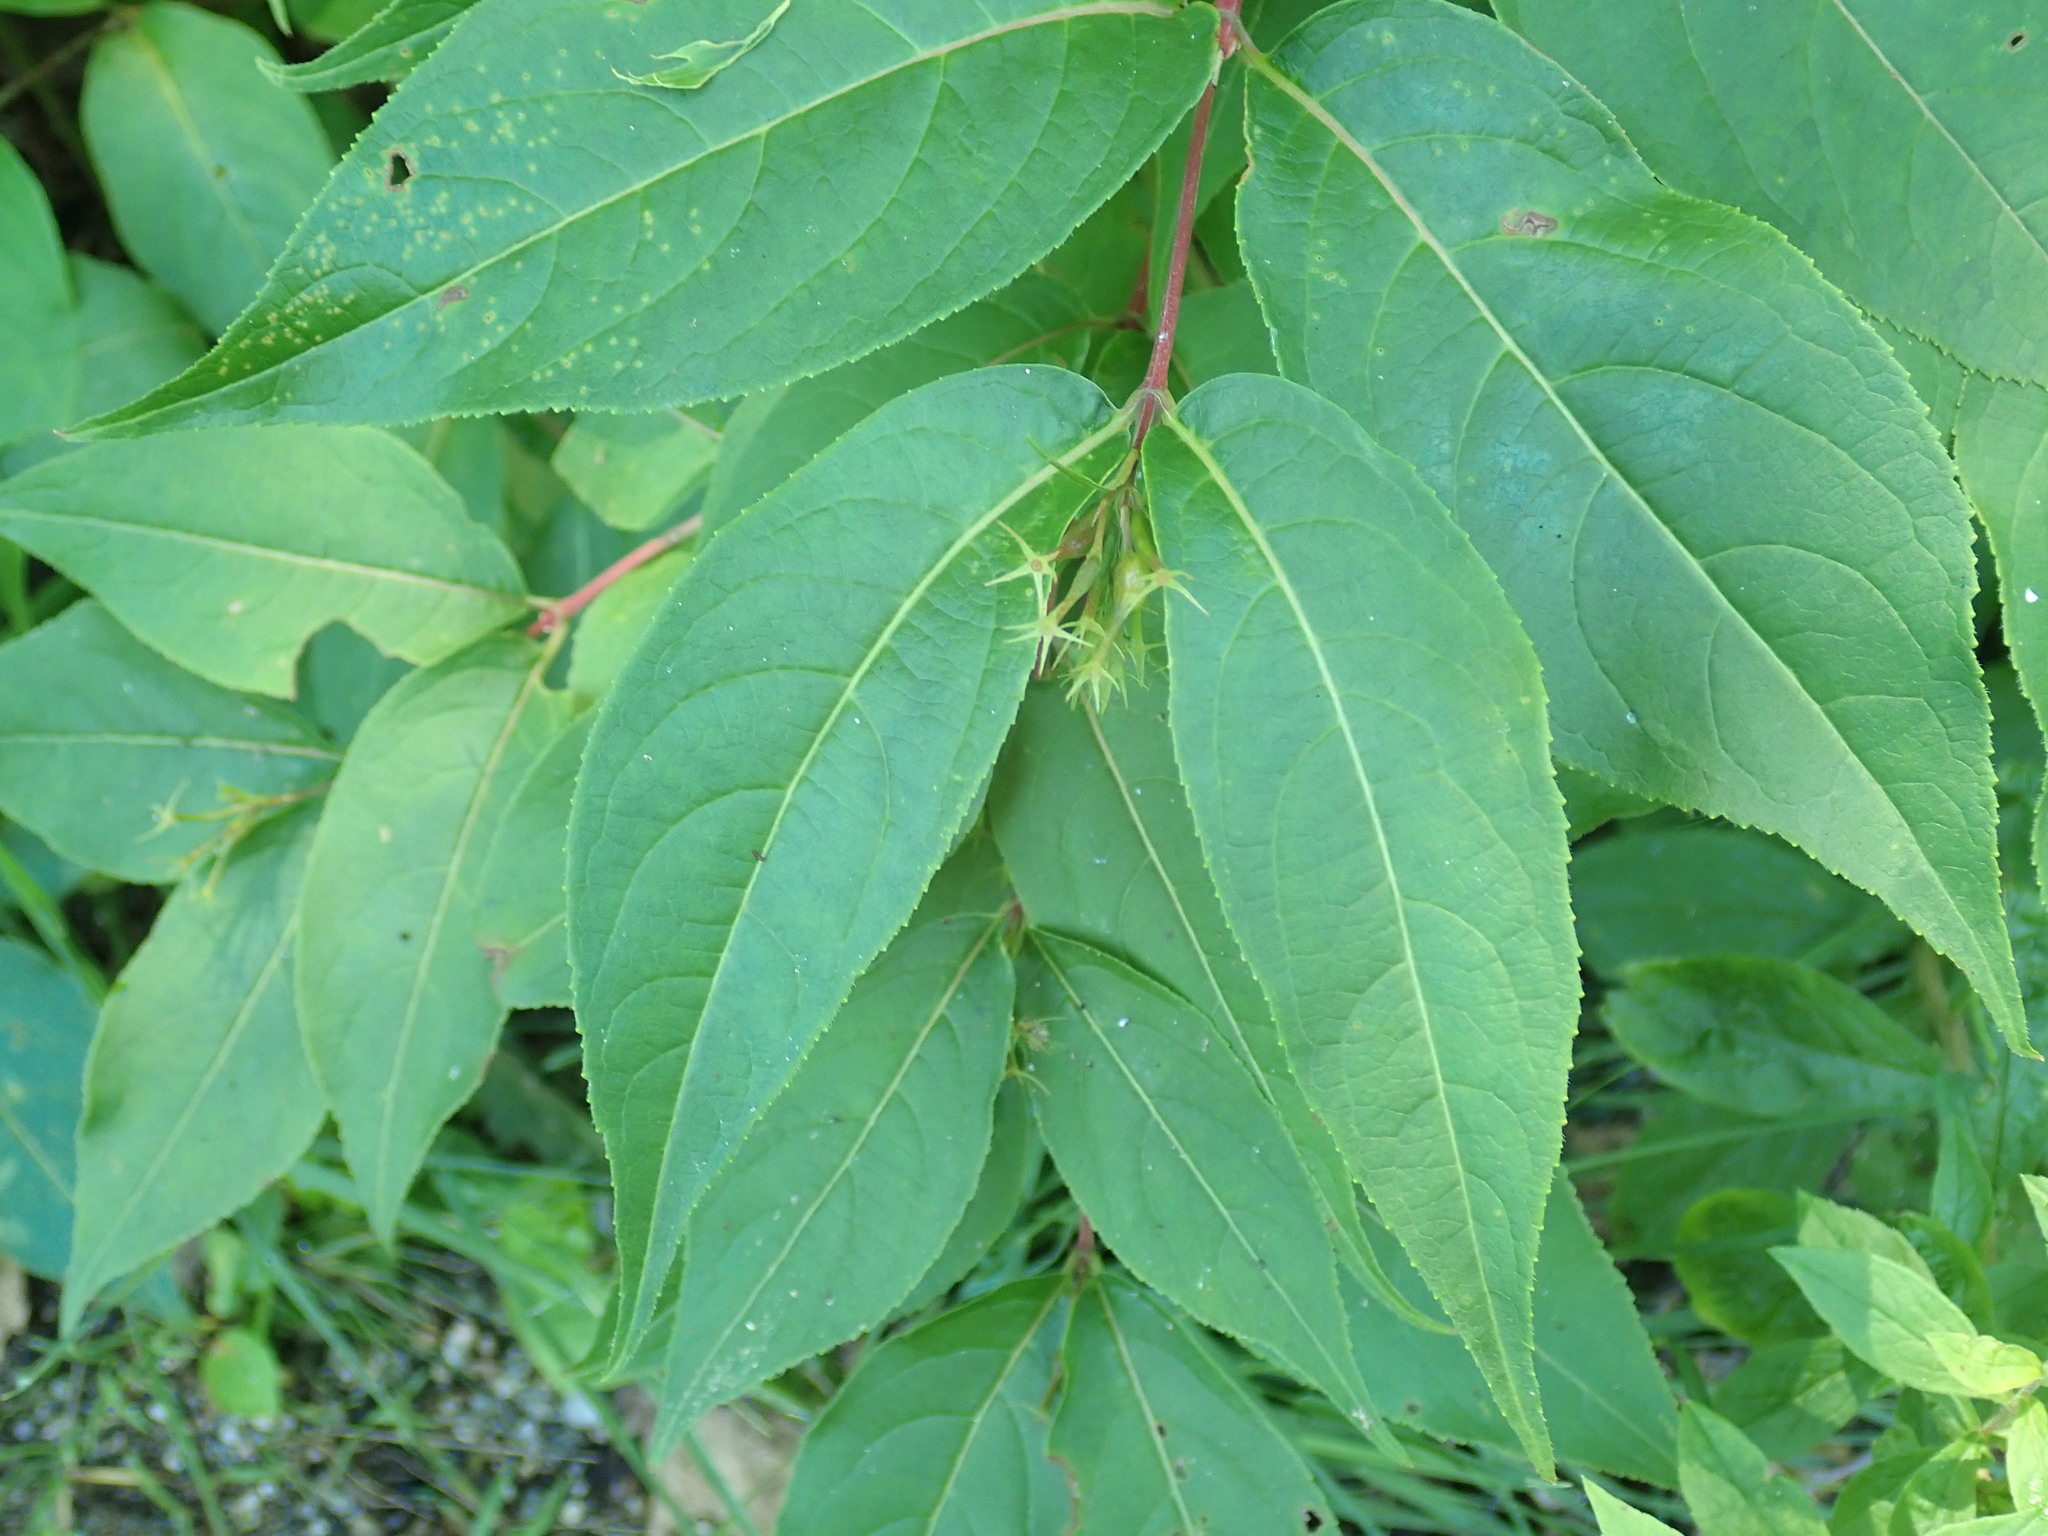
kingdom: Plantae
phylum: Tracheophyta
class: Magnoliopsida
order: Dipsacales
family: Caprifoliaceae
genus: Diervilla
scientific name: Diervilla lonicera
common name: Bush-honeysuckle
